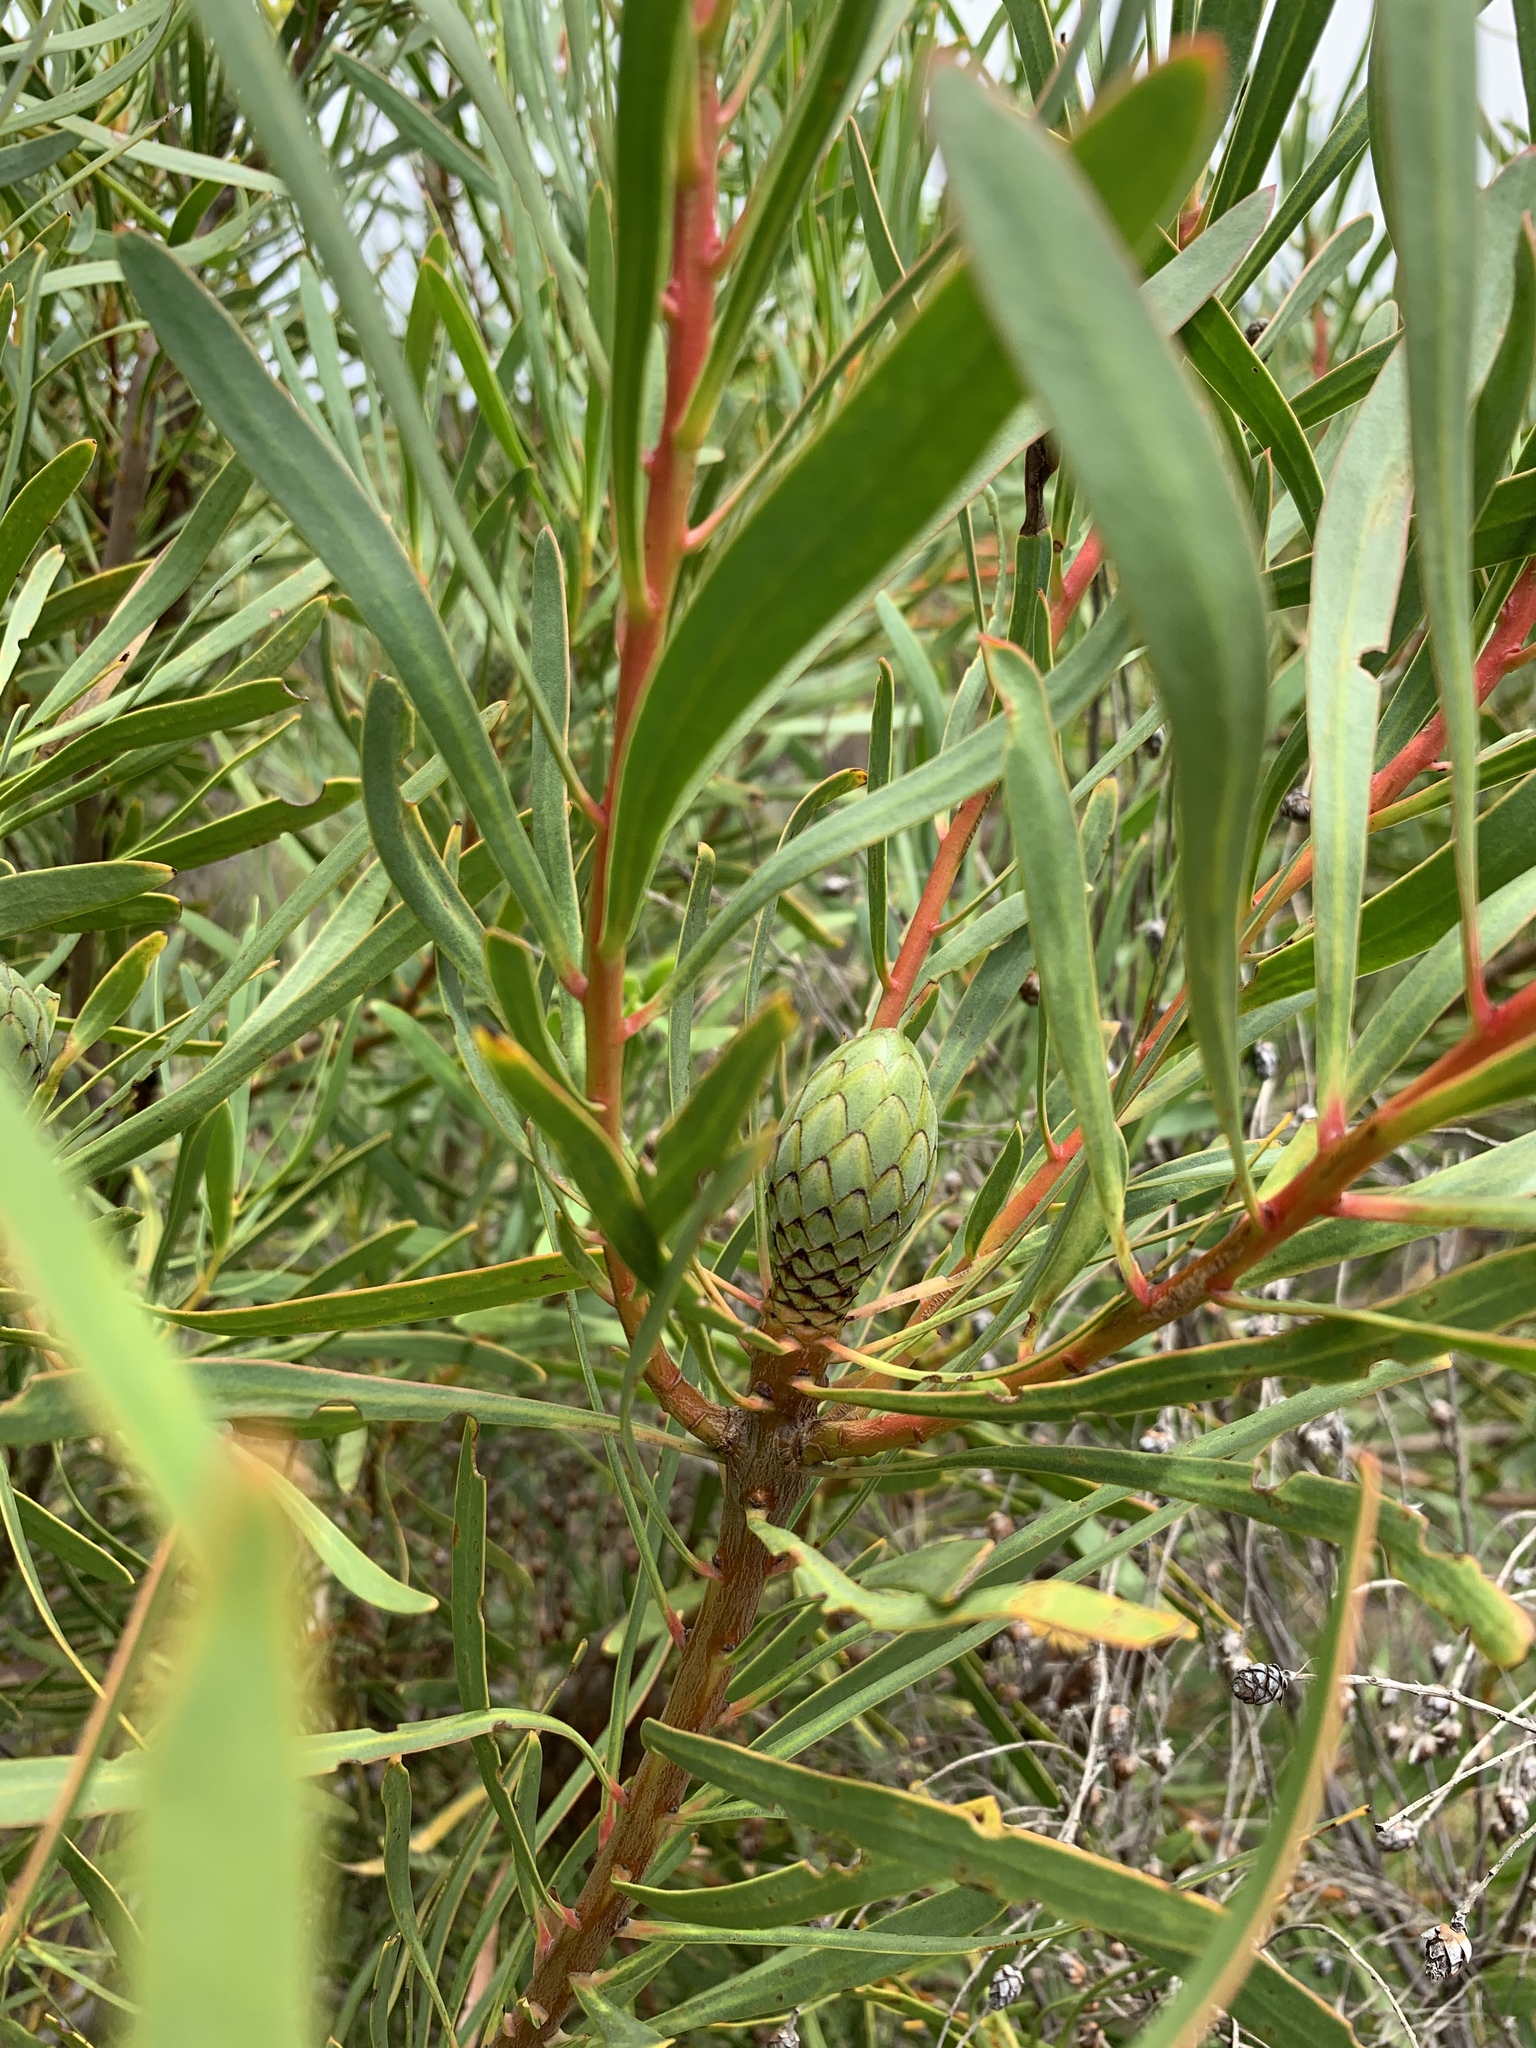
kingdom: Plantae
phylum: Tracheophyta
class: Magnoliopsida
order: Proteales
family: Proteaceae
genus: Protea
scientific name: Protea repens
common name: Sugarbush
